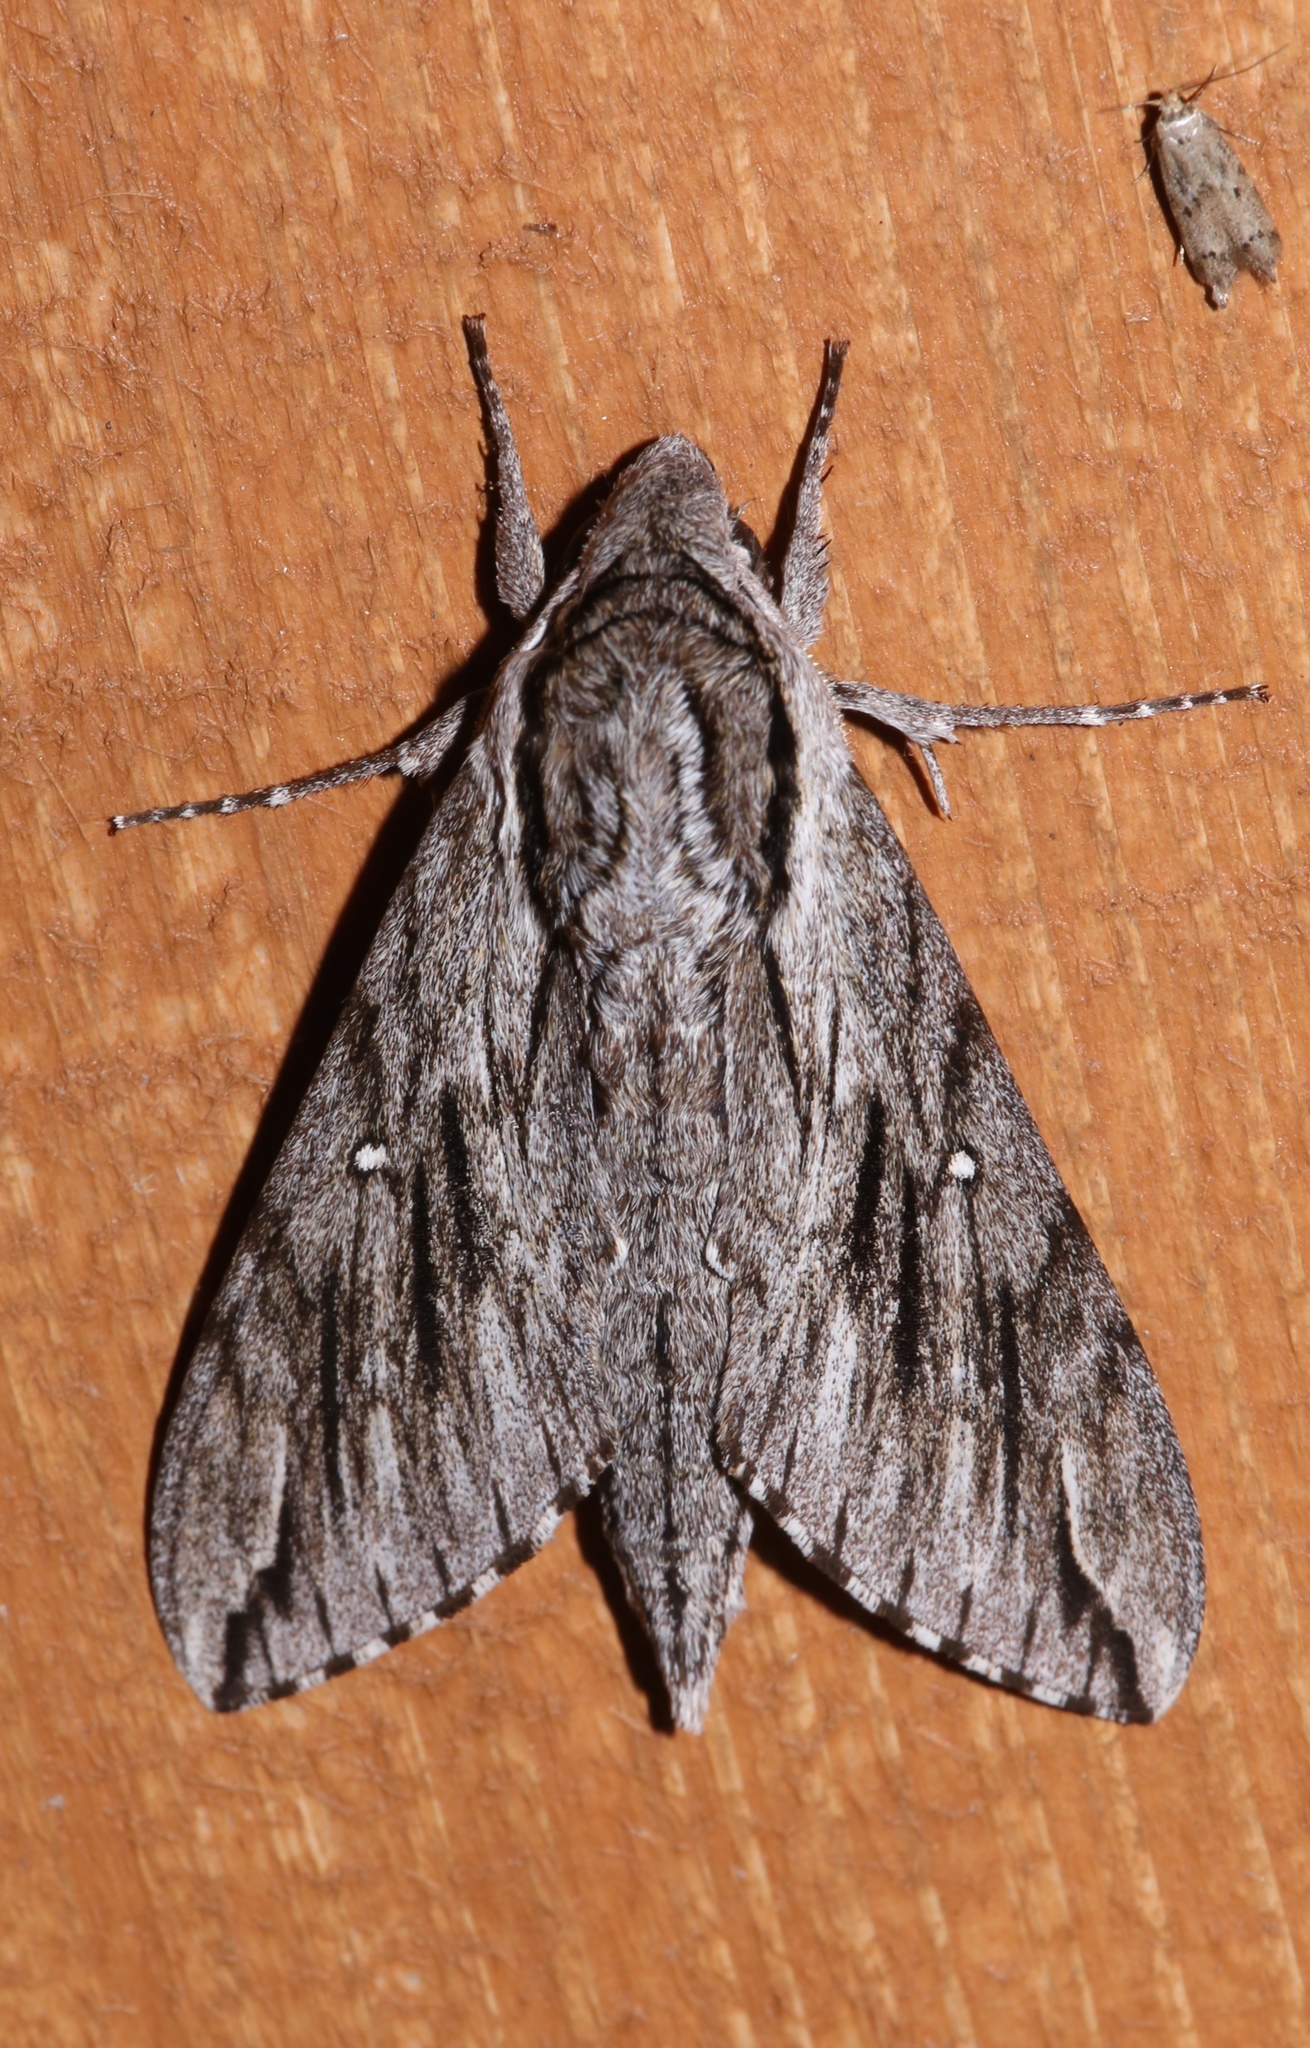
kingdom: Animalia
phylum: Arthropoda
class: Insecta
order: Lepidoptera
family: Sphingidae
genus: Paratrea
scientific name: Paratrea plebeja
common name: Plebian sphinx
